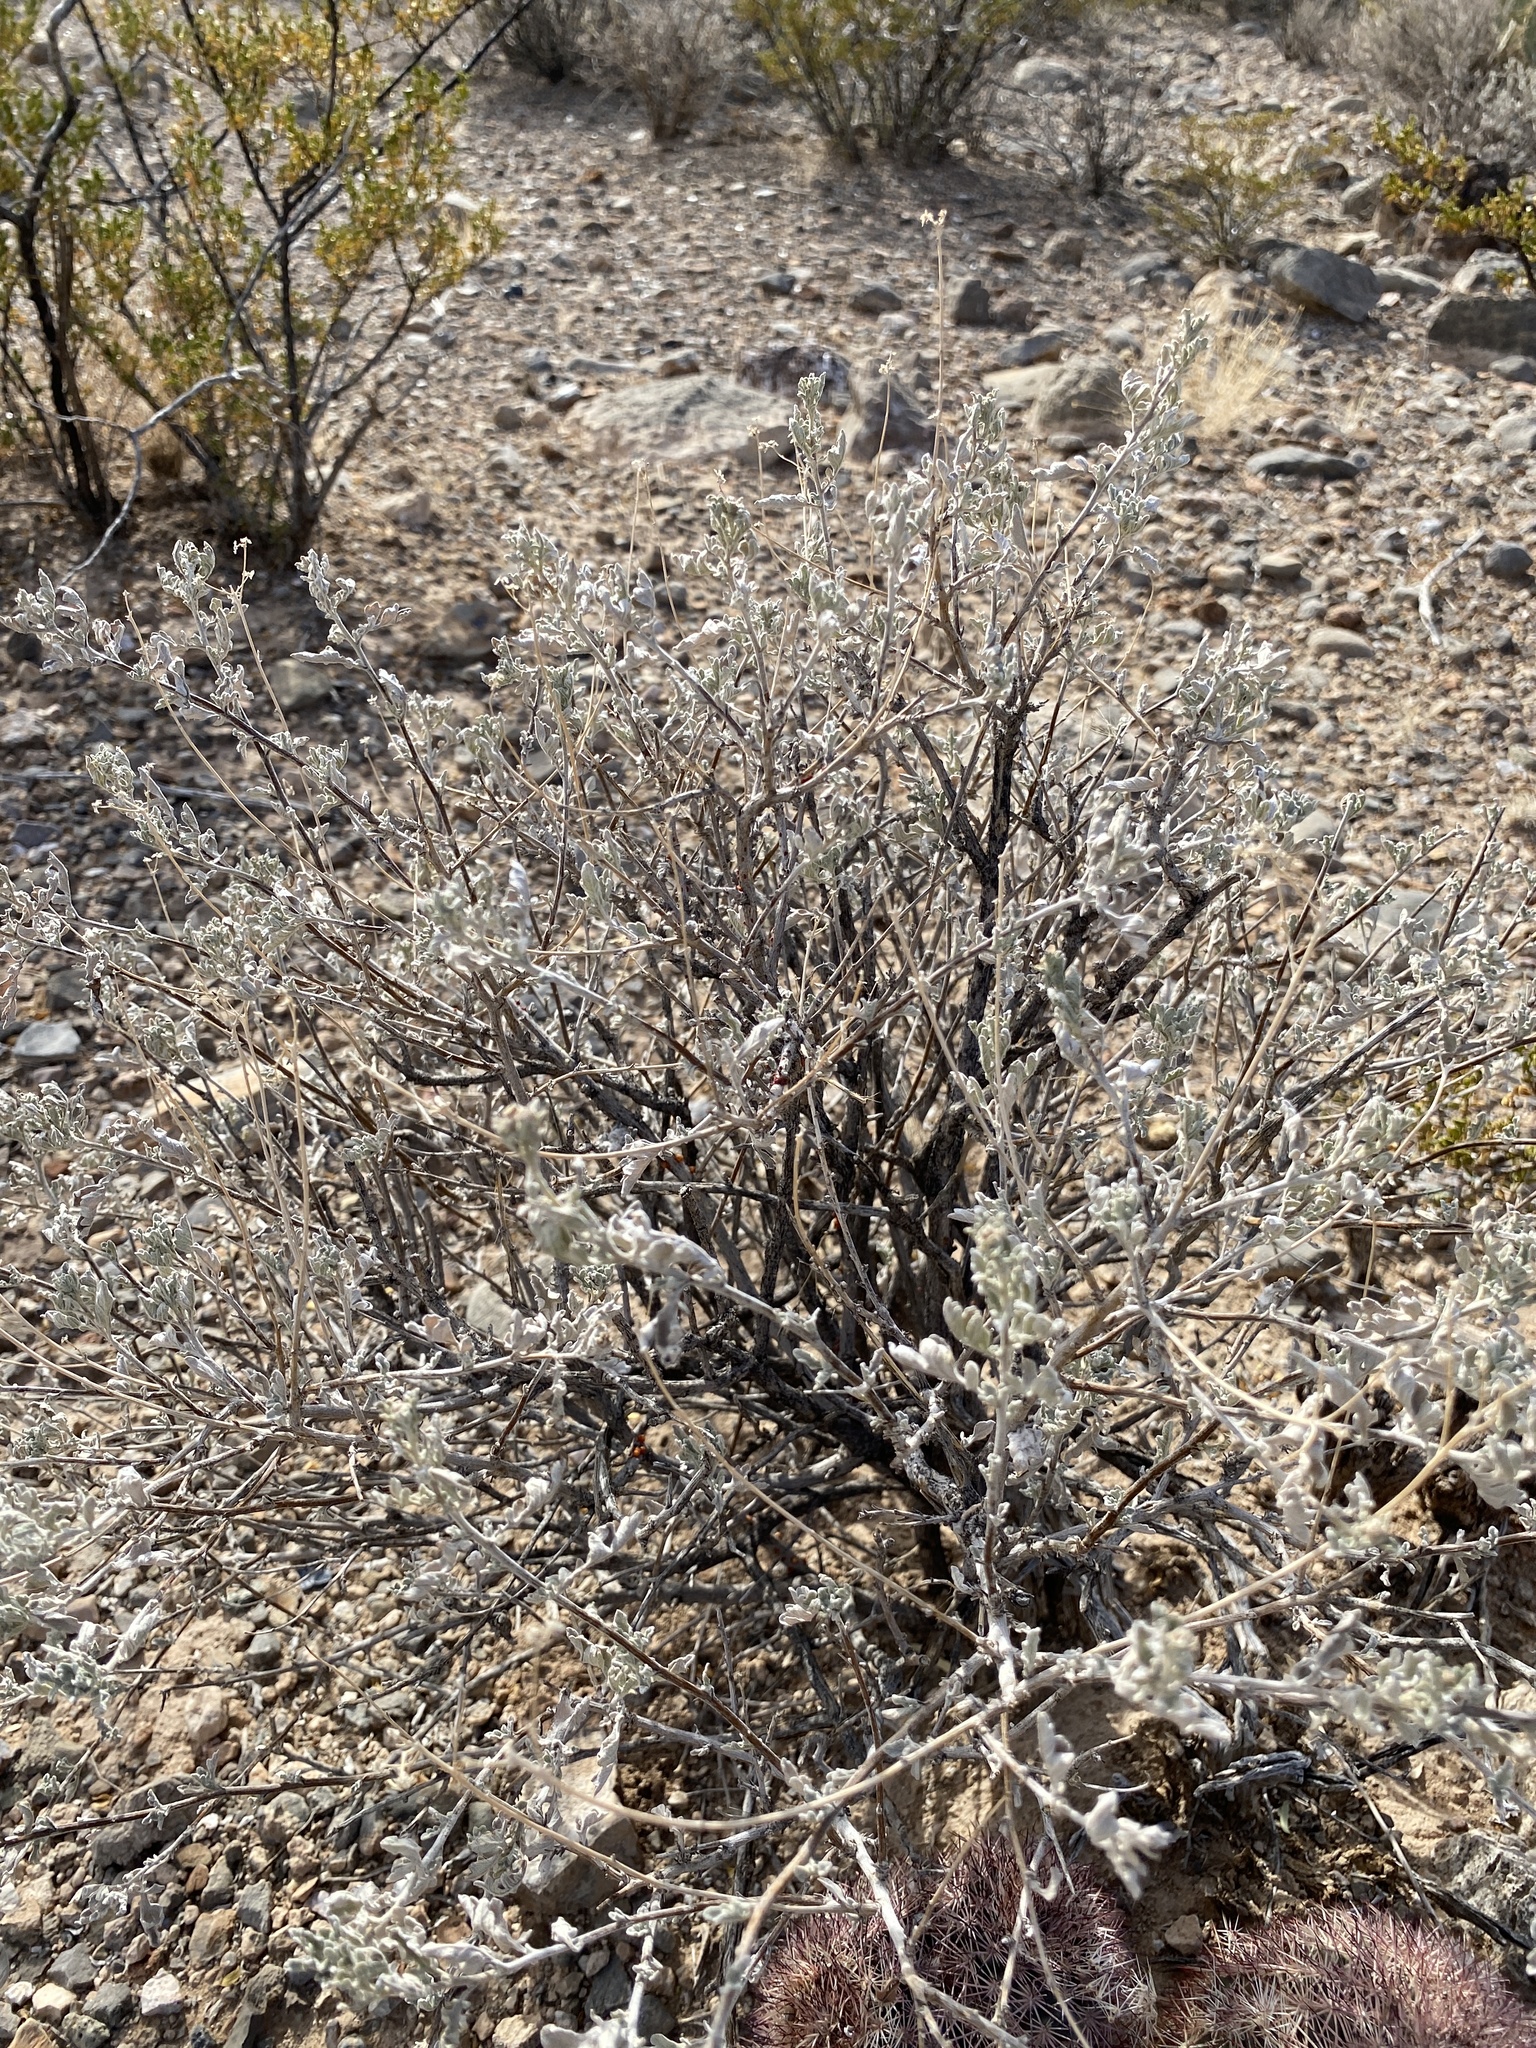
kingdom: Plantae
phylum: Tracheophyta
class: Magnoliopsida
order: Asterales
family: Asteraceae
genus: Parthenium
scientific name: Parthenium incanum
